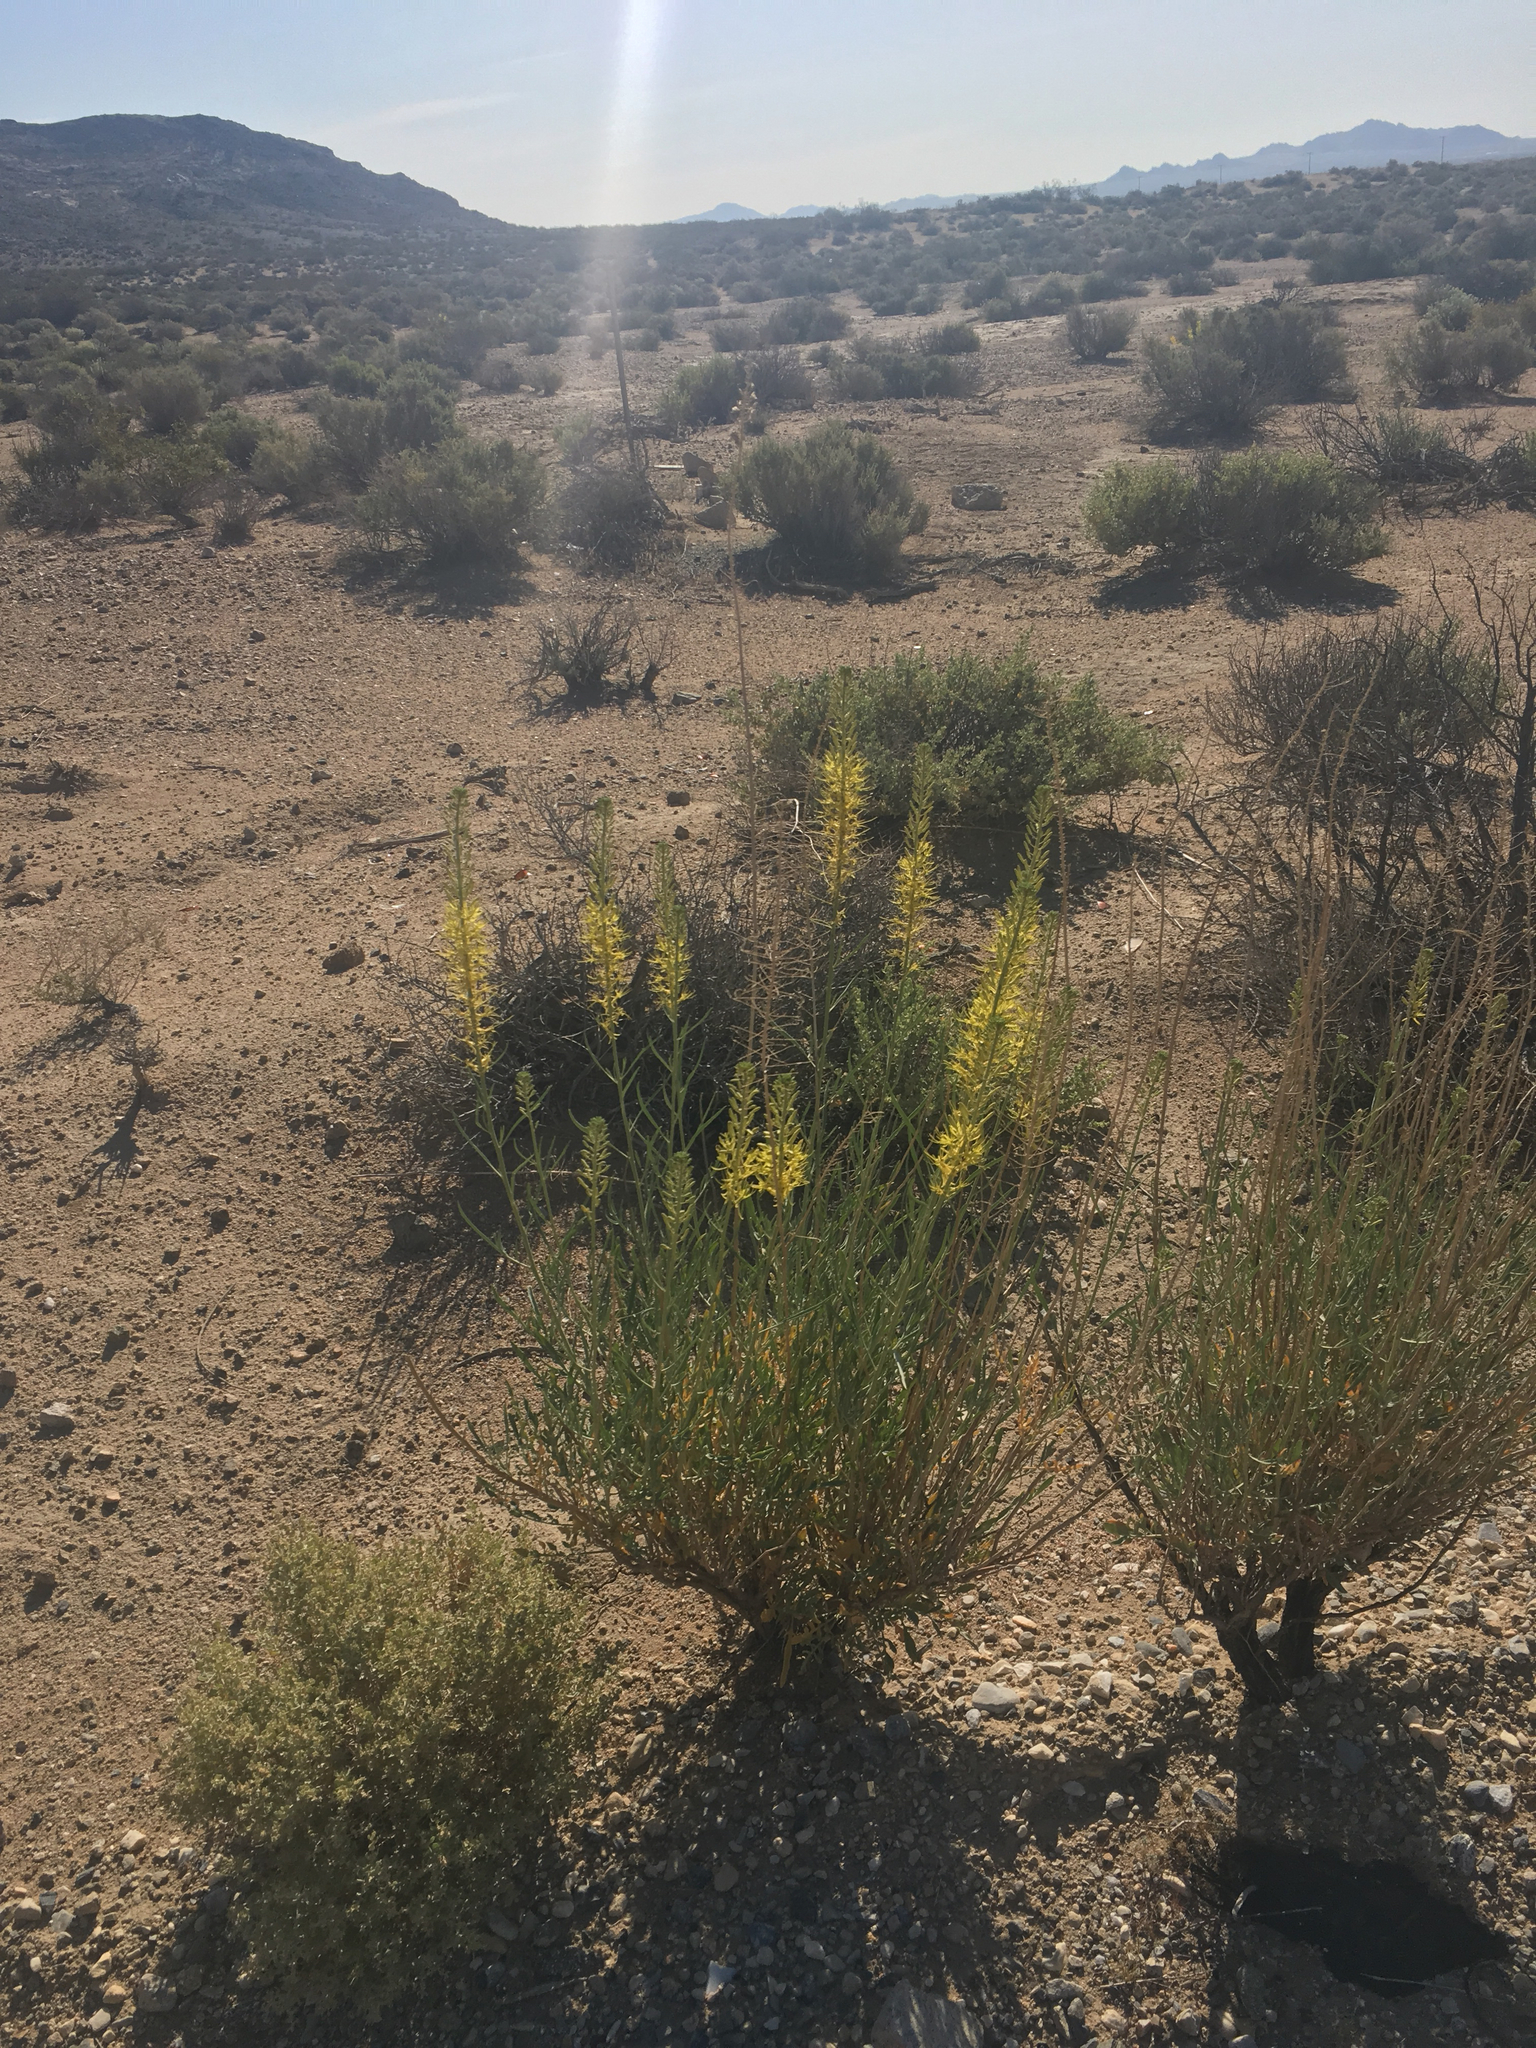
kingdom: Plantae
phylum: Tracheophyta
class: Magnoliopsida
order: Brassicales
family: Brassicaceae
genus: Stanleya
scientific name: Stanleya pinnata
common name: Prince's-plume
